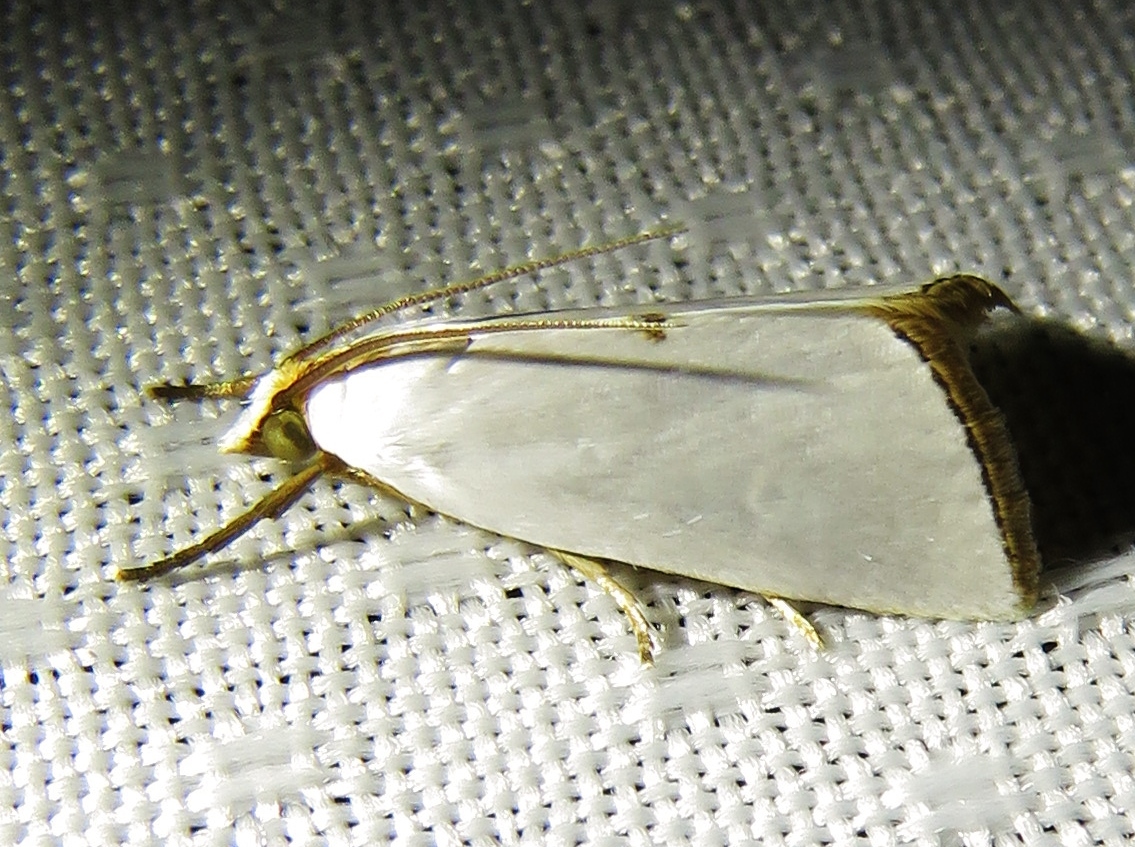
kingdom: Animalia
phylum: Arthropoda
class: Insecta
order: Lepidoptera
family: Crambidae
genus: Argyria
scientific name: Argyria nivalis
